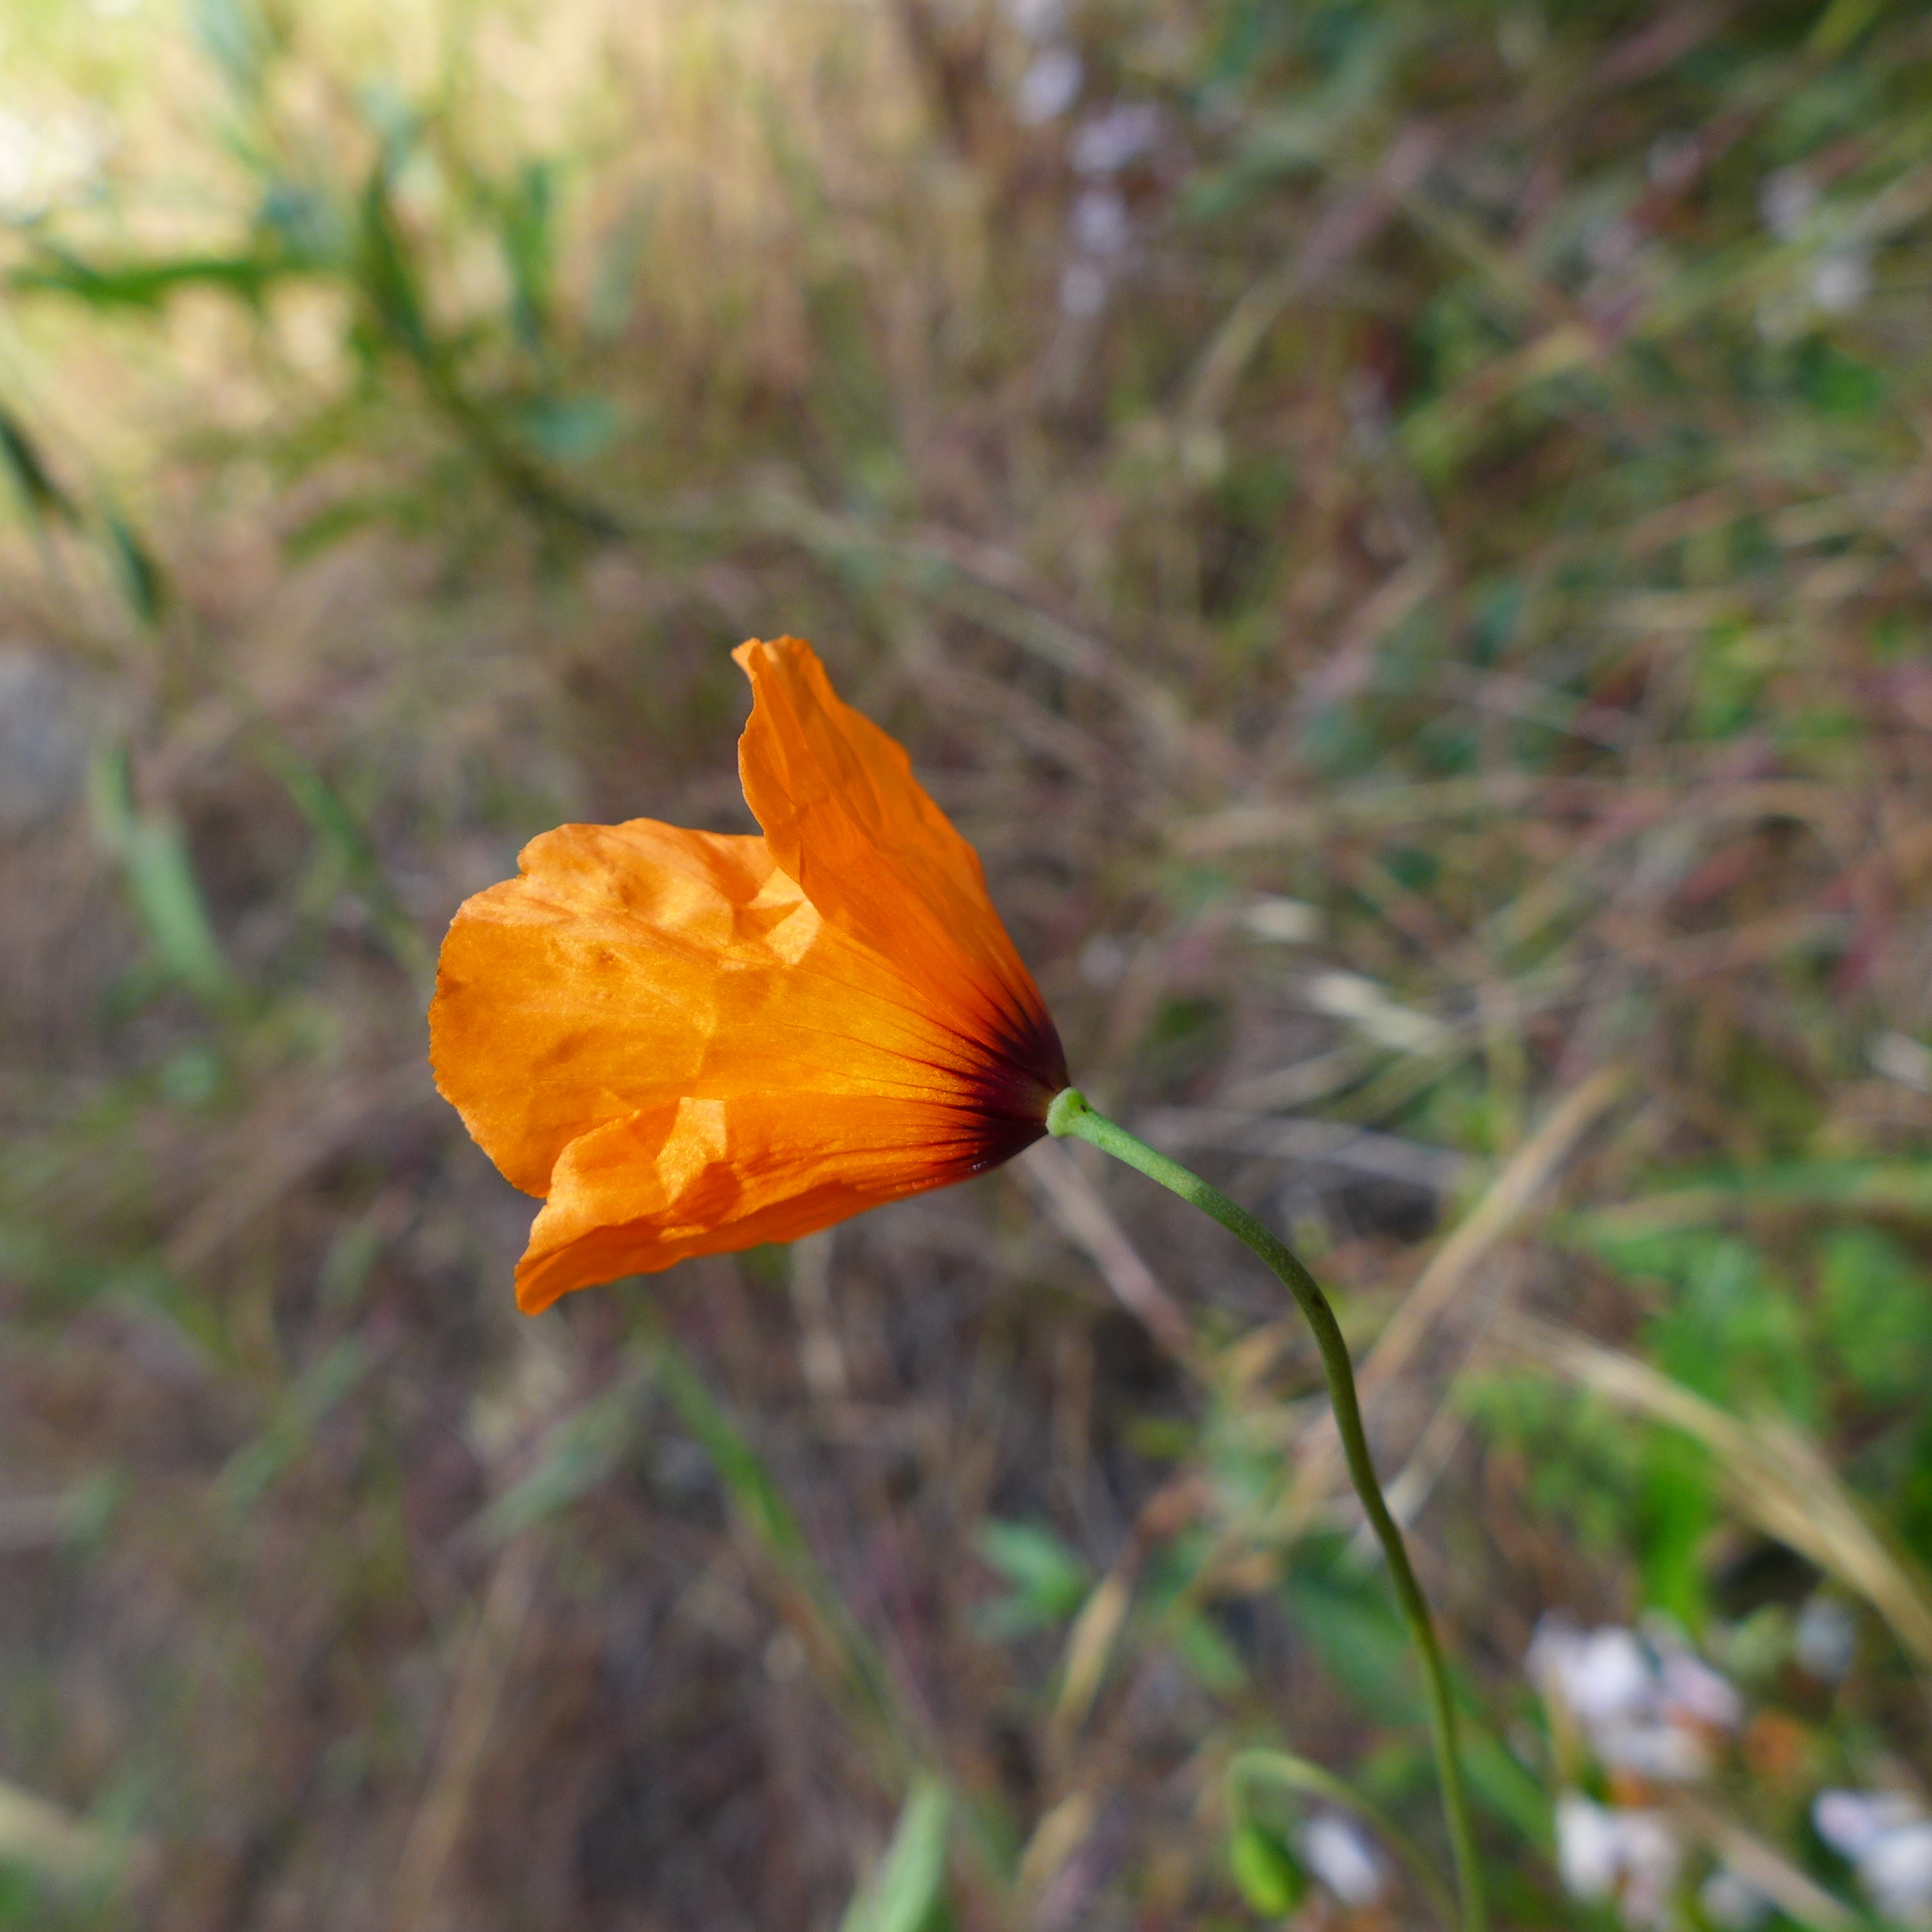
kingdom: Plantae
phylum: Tracheophyta
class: Magnoliopsida
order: Ranunculales
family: Papaveraceae
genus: Stylomecon
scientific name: Stylomecon heterophylla
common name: Flaming-poppy
